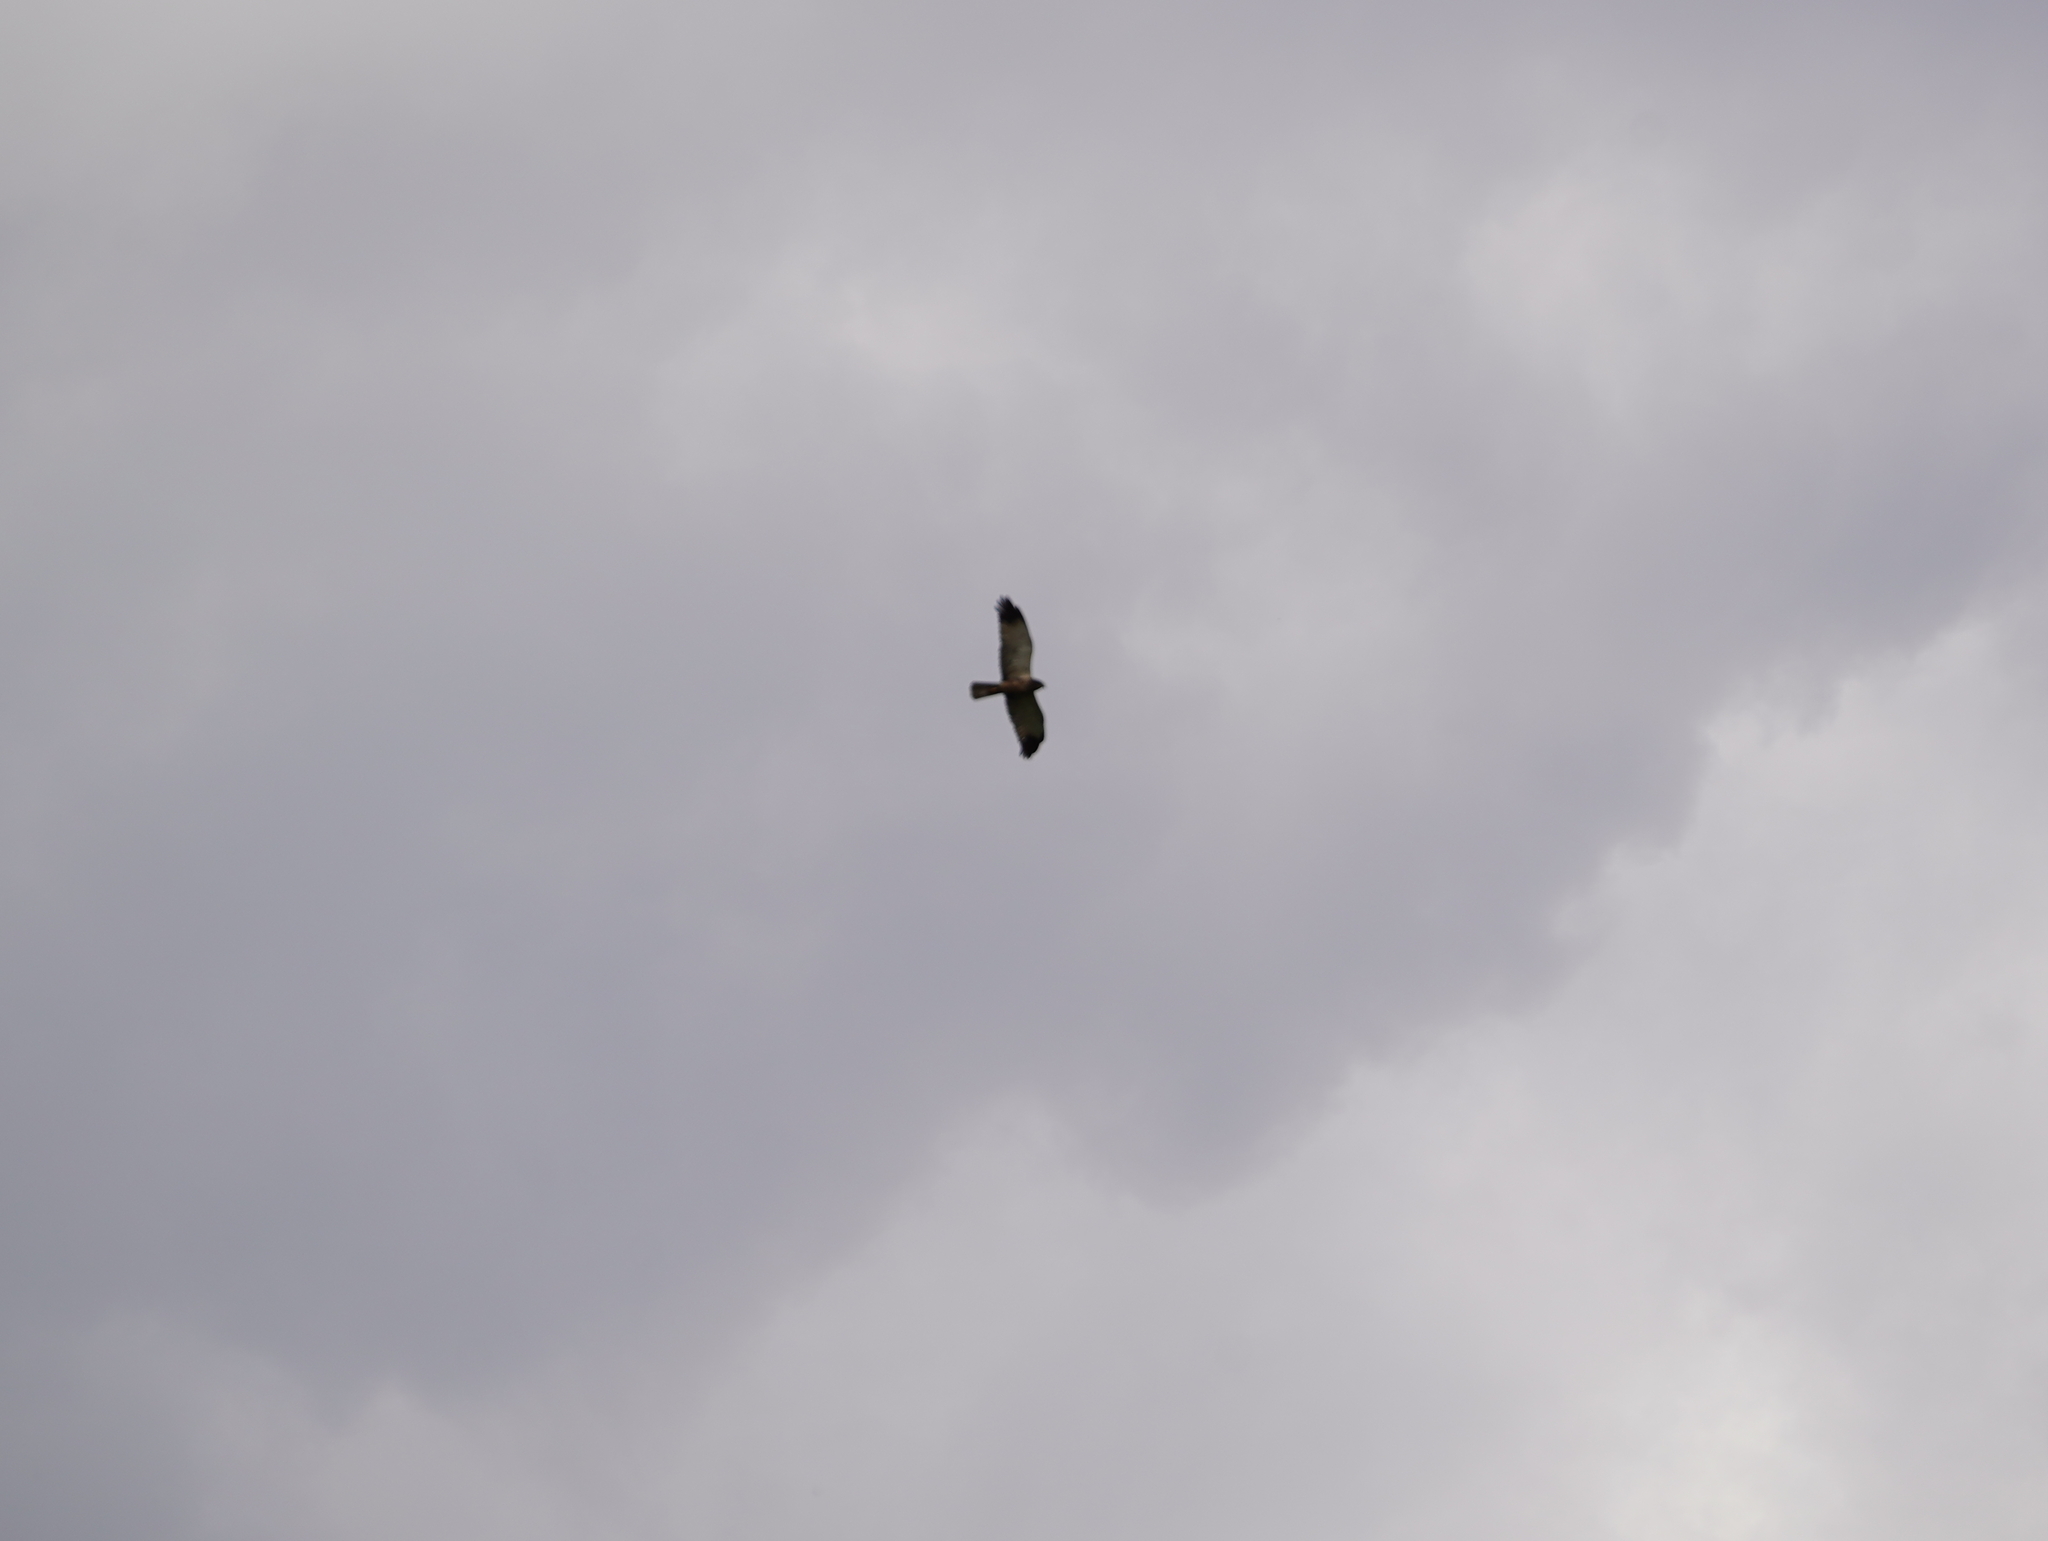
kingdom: Animalia
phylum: Chordata
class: Aves
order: Accipitriformes
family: Accipitridae
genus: Circus
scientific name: Circus aeruginosus
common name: Western marsh harrier
